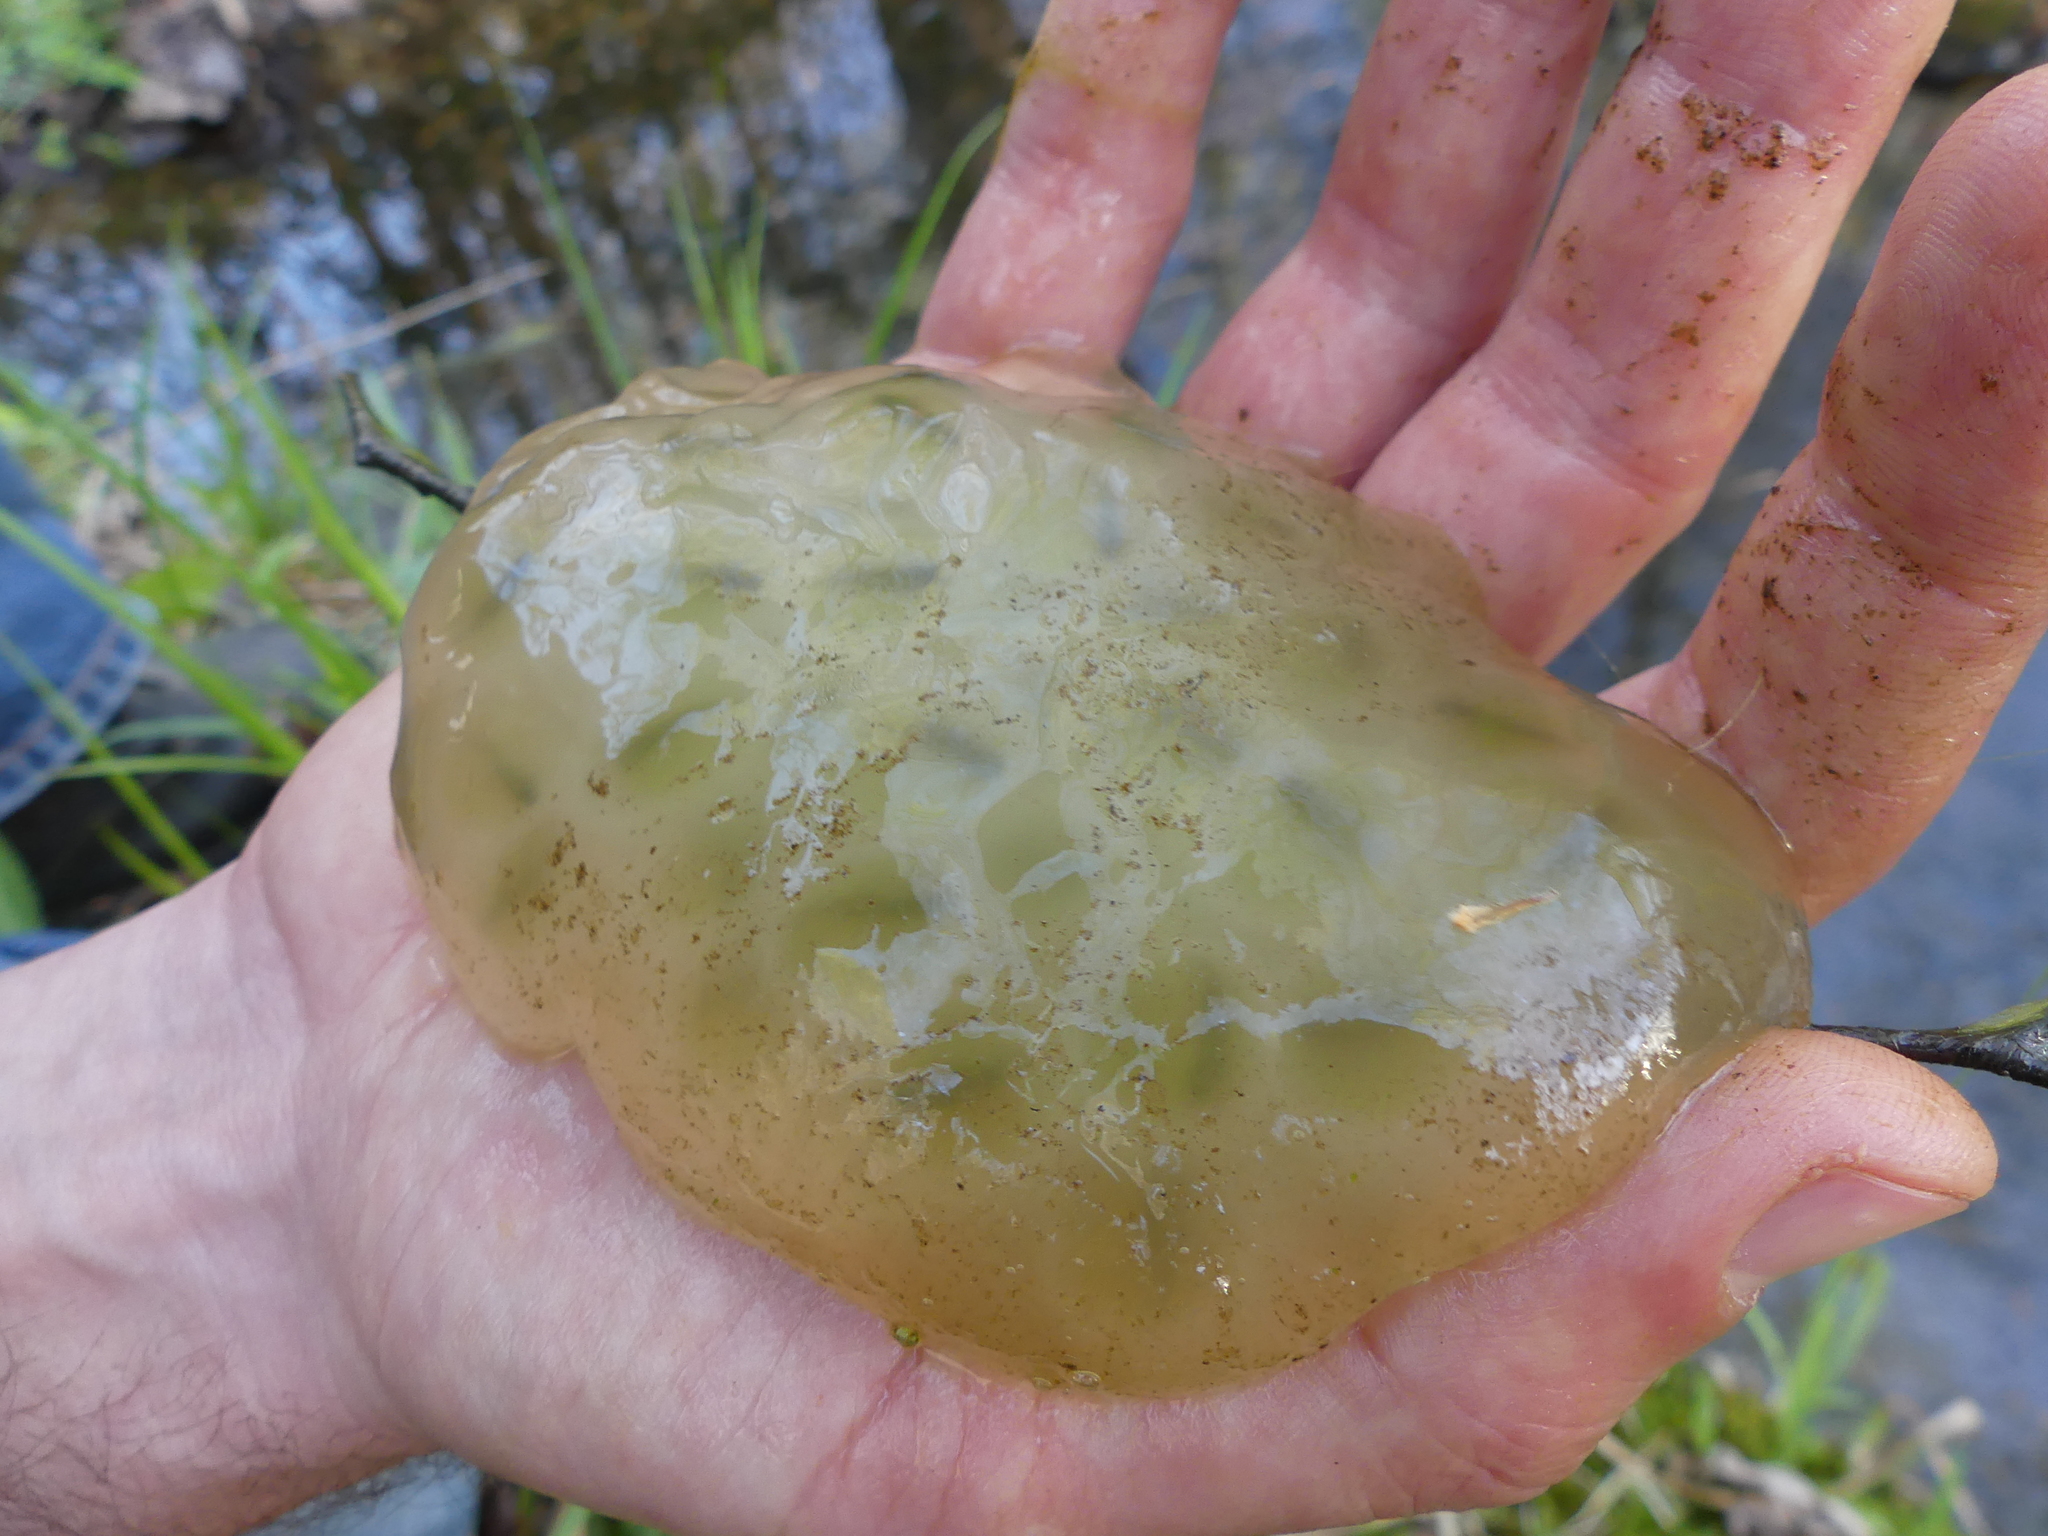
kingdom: Animalia
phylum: Chordata
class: Amphibia
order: Caudata
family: Ambystomatidae
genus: Ambystoma
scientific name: Ambystoma maculatum
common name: Spotted salamander
